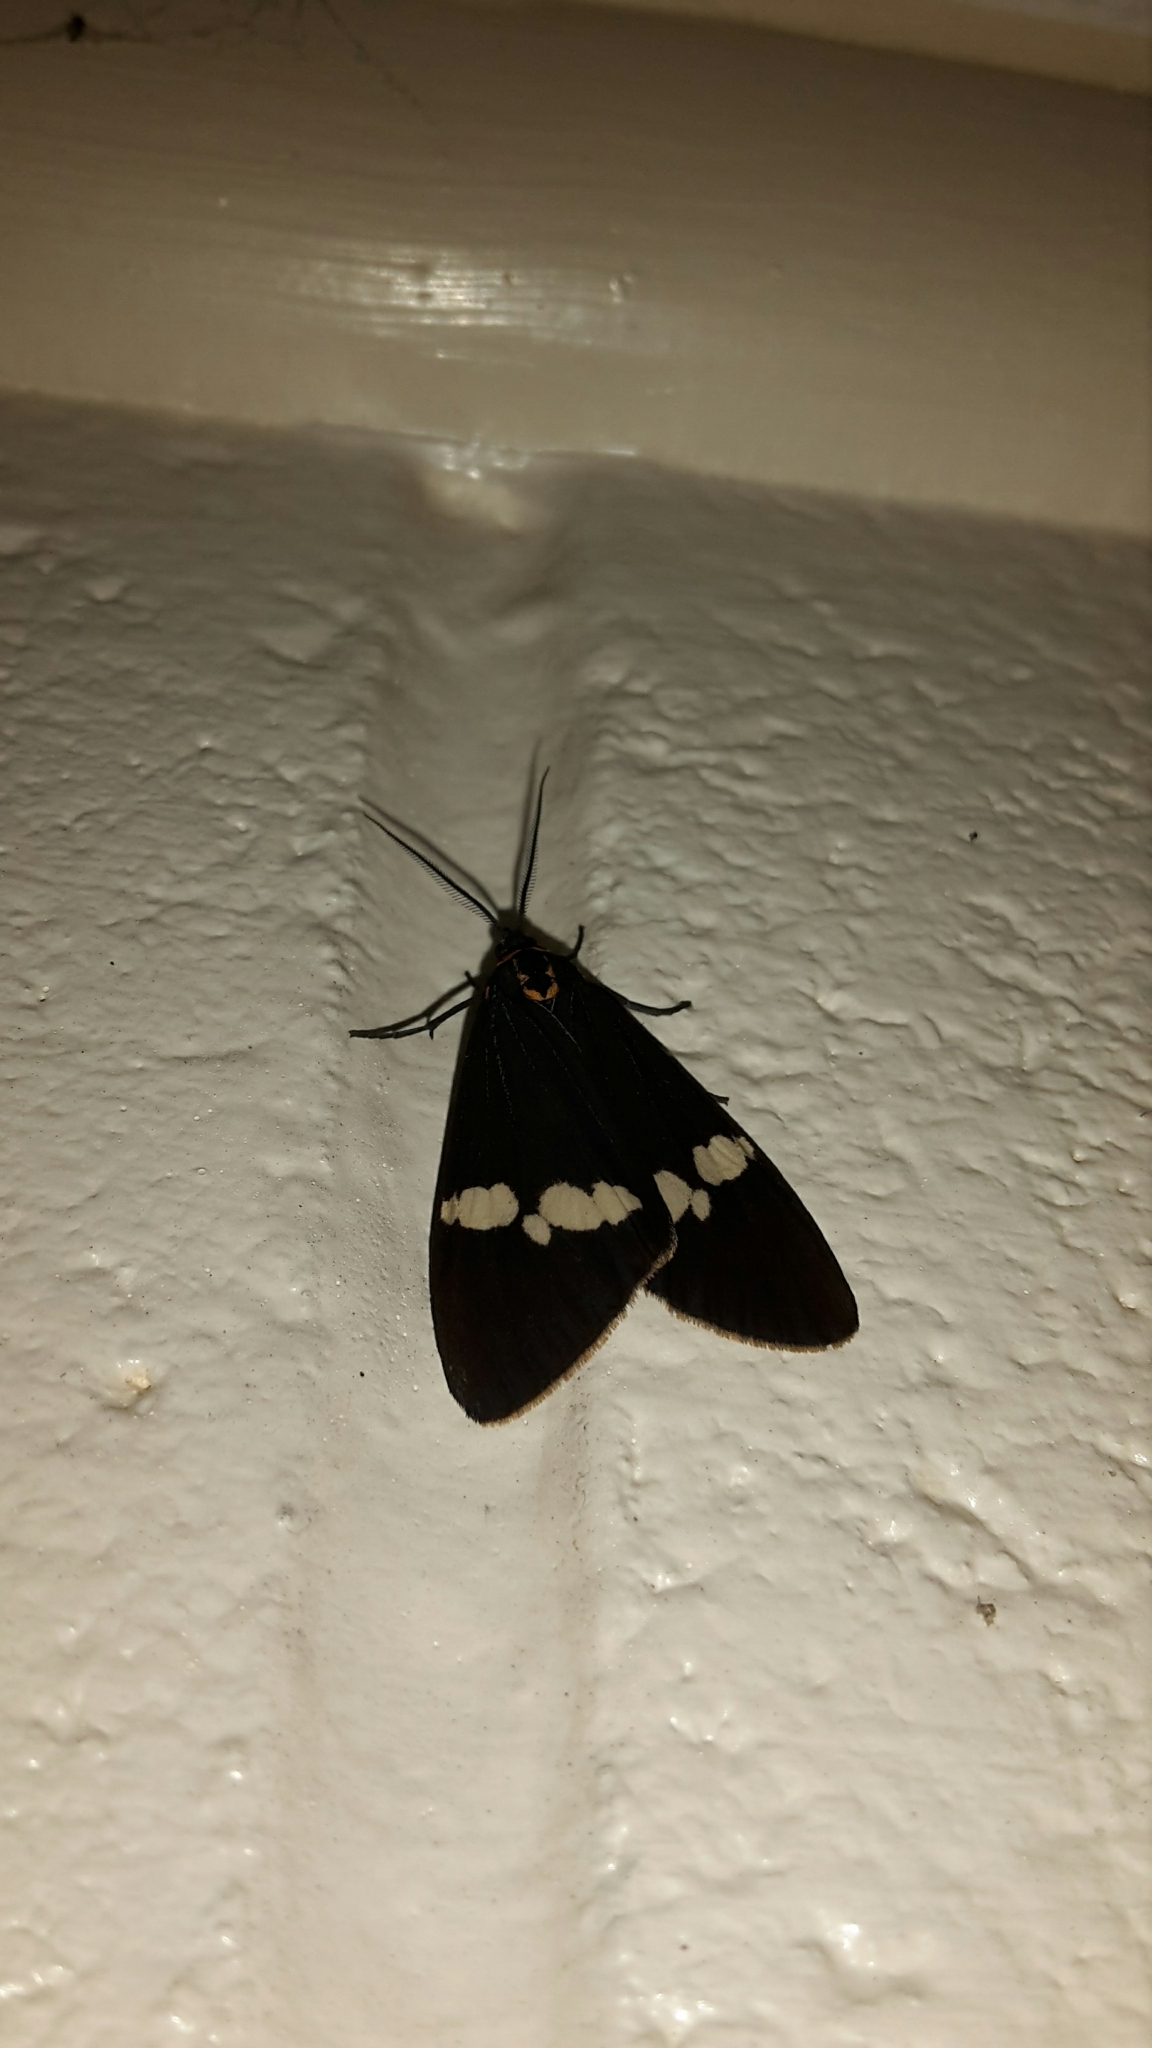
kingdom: Animalia
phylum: Arthropoda
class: Insecta
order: Lepidoptera
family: Erebidae
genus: Nyctemera
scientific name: Nyctemera annulatum
